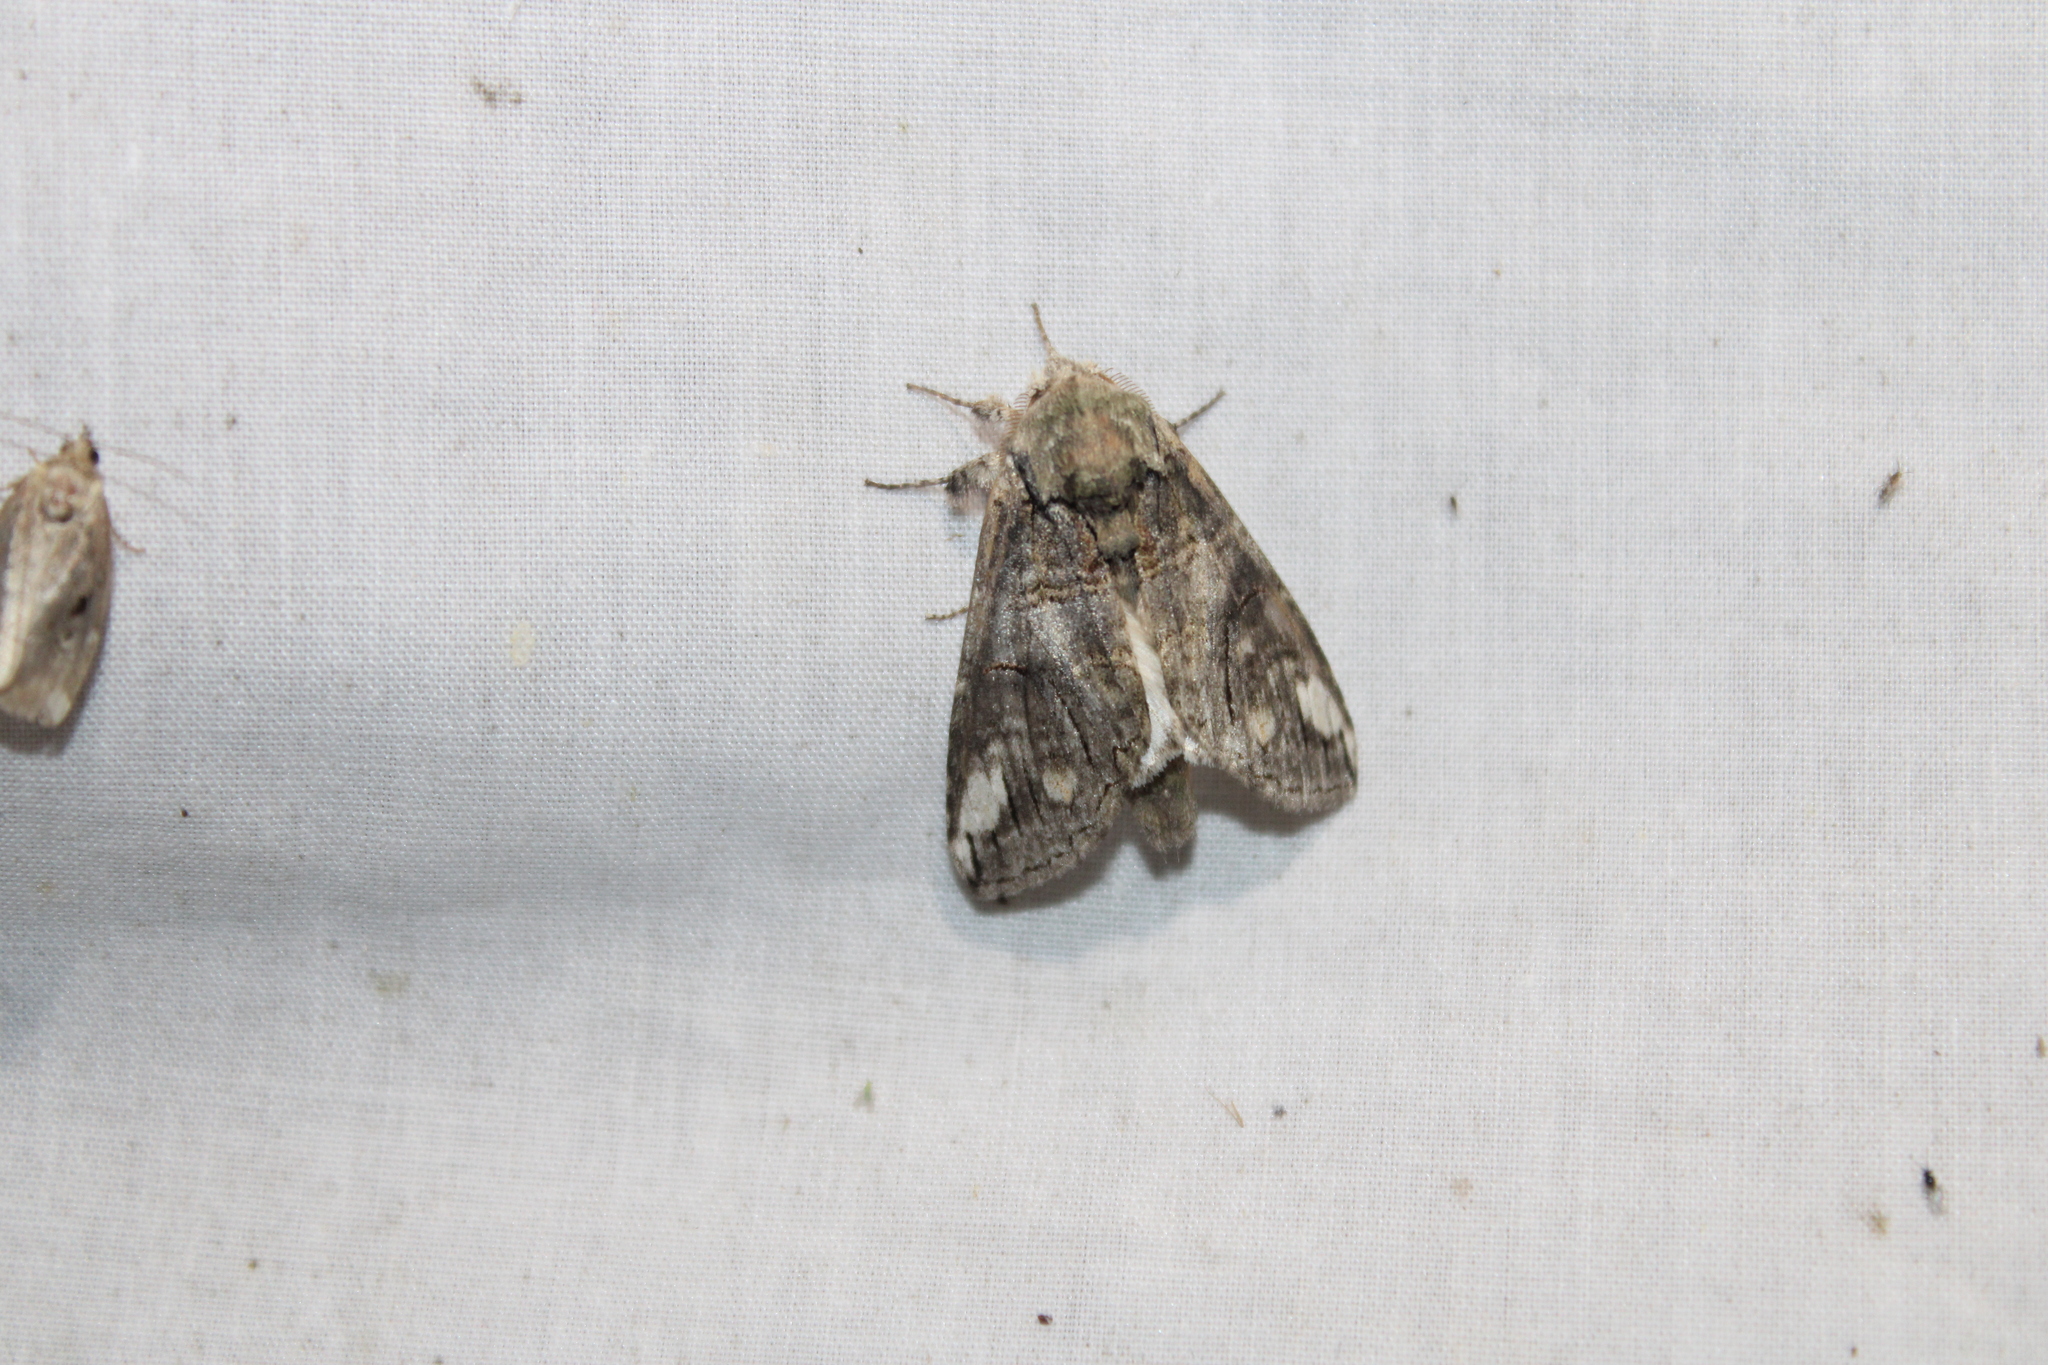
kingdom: Animalia
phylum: Arthropoda
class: Insecta
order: Lepidoptera
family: Notodontidae
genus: Heterocampa
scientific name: Heterocampa obliqua
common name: Oblique heterocampa
